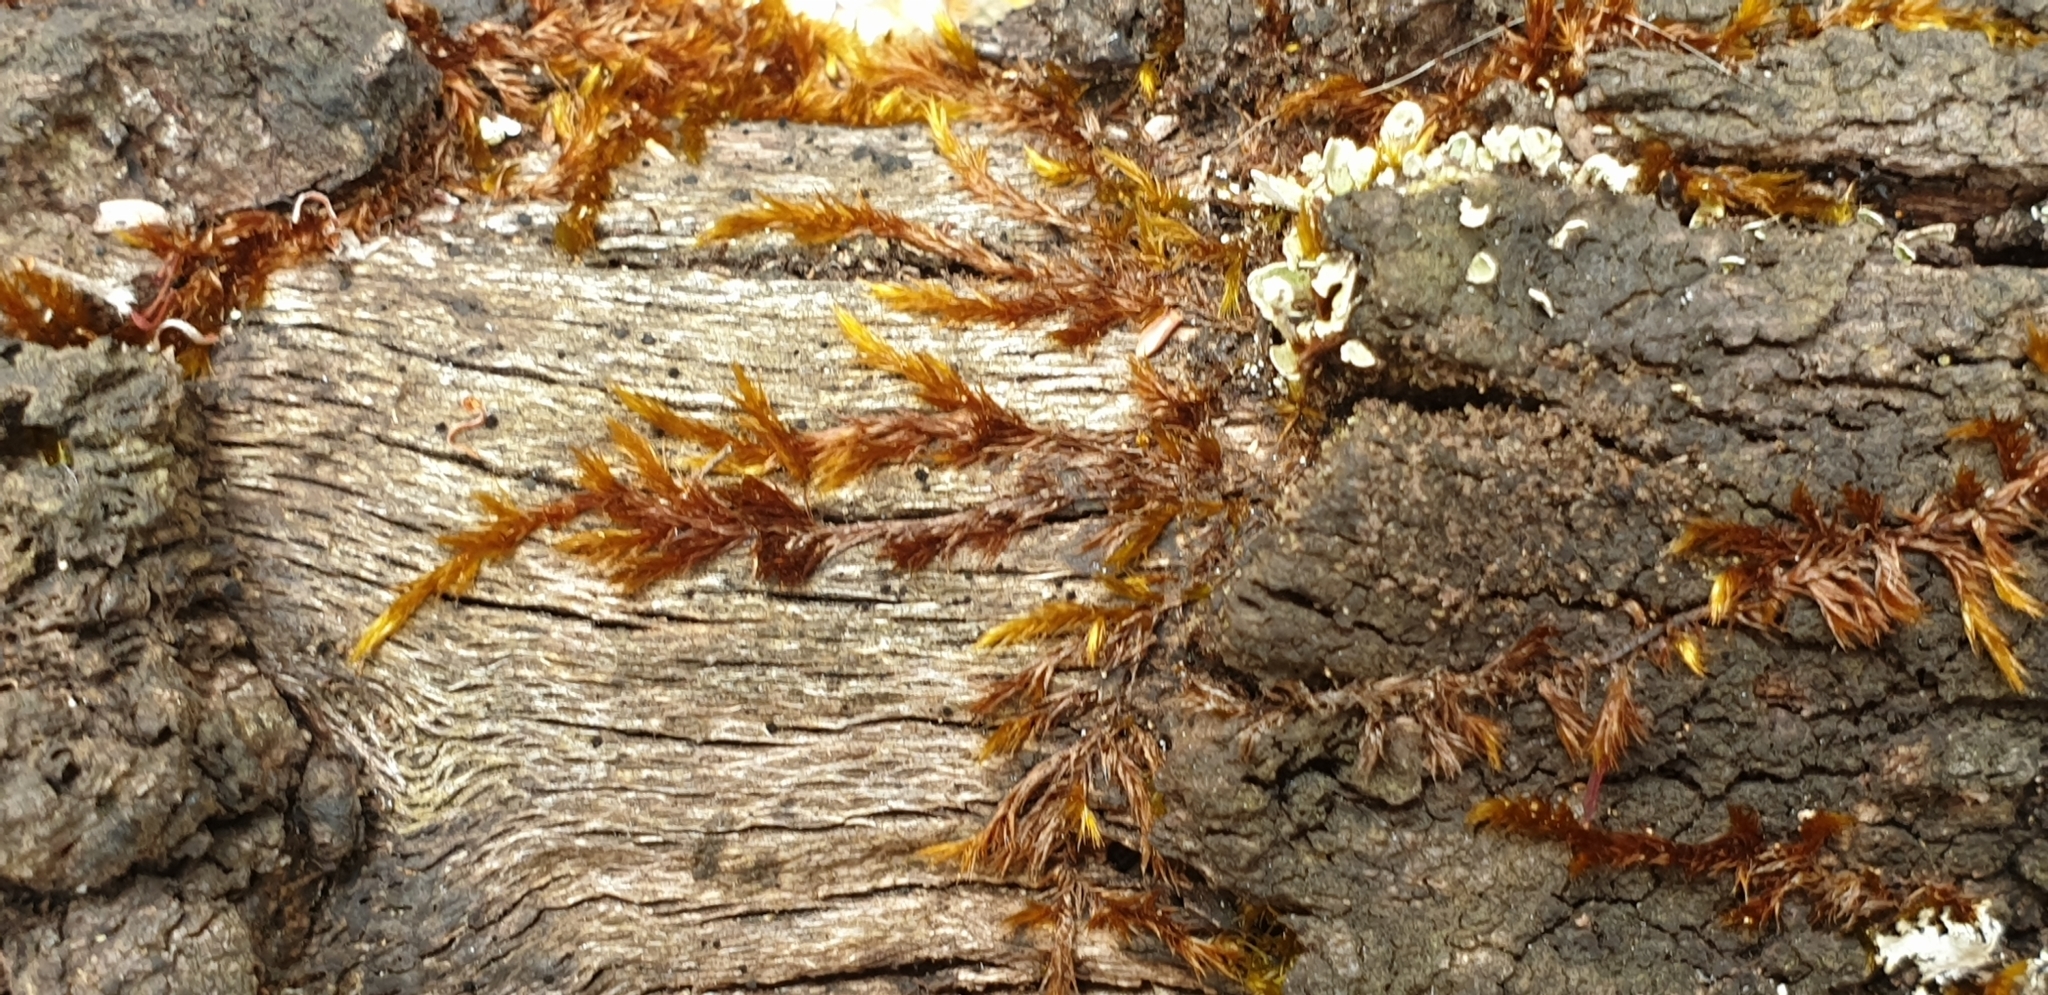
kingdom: Plantae
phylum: Bryophyta
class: Bryopsida
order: Hypnales
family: Sematophyllaceae
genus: Sematophyllum
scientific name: Sematophyllum homomallum
